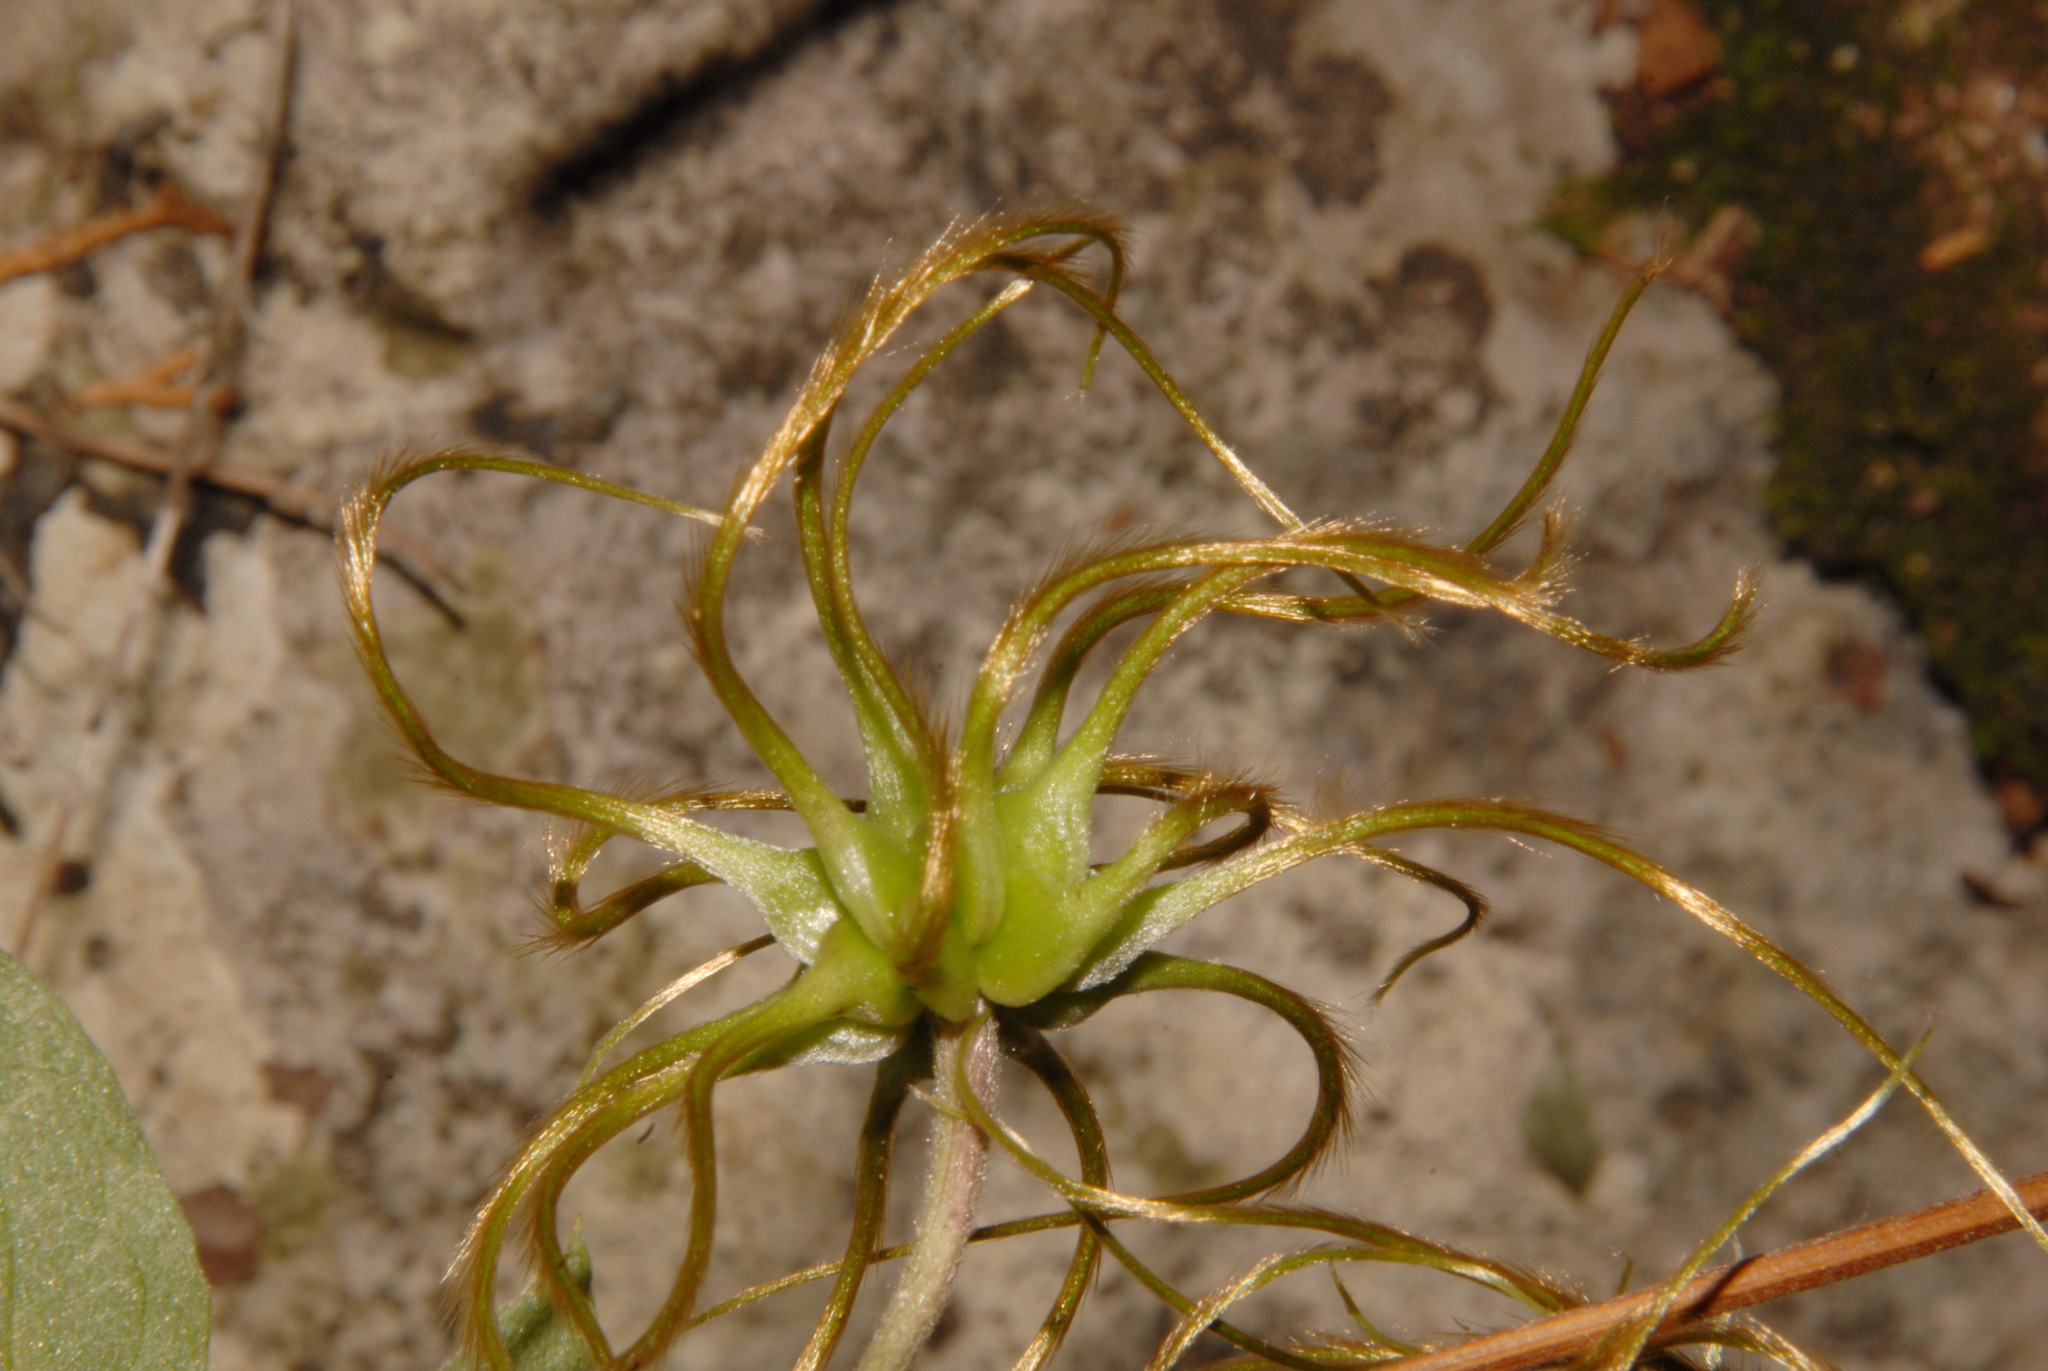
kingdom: Plantae
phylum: Tracheophyta
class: Magnoliopsida
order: Ranunculales
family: Ranunculaceae
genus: Clematis
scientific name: Clematis morefieldii
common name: Morefield's clematis
